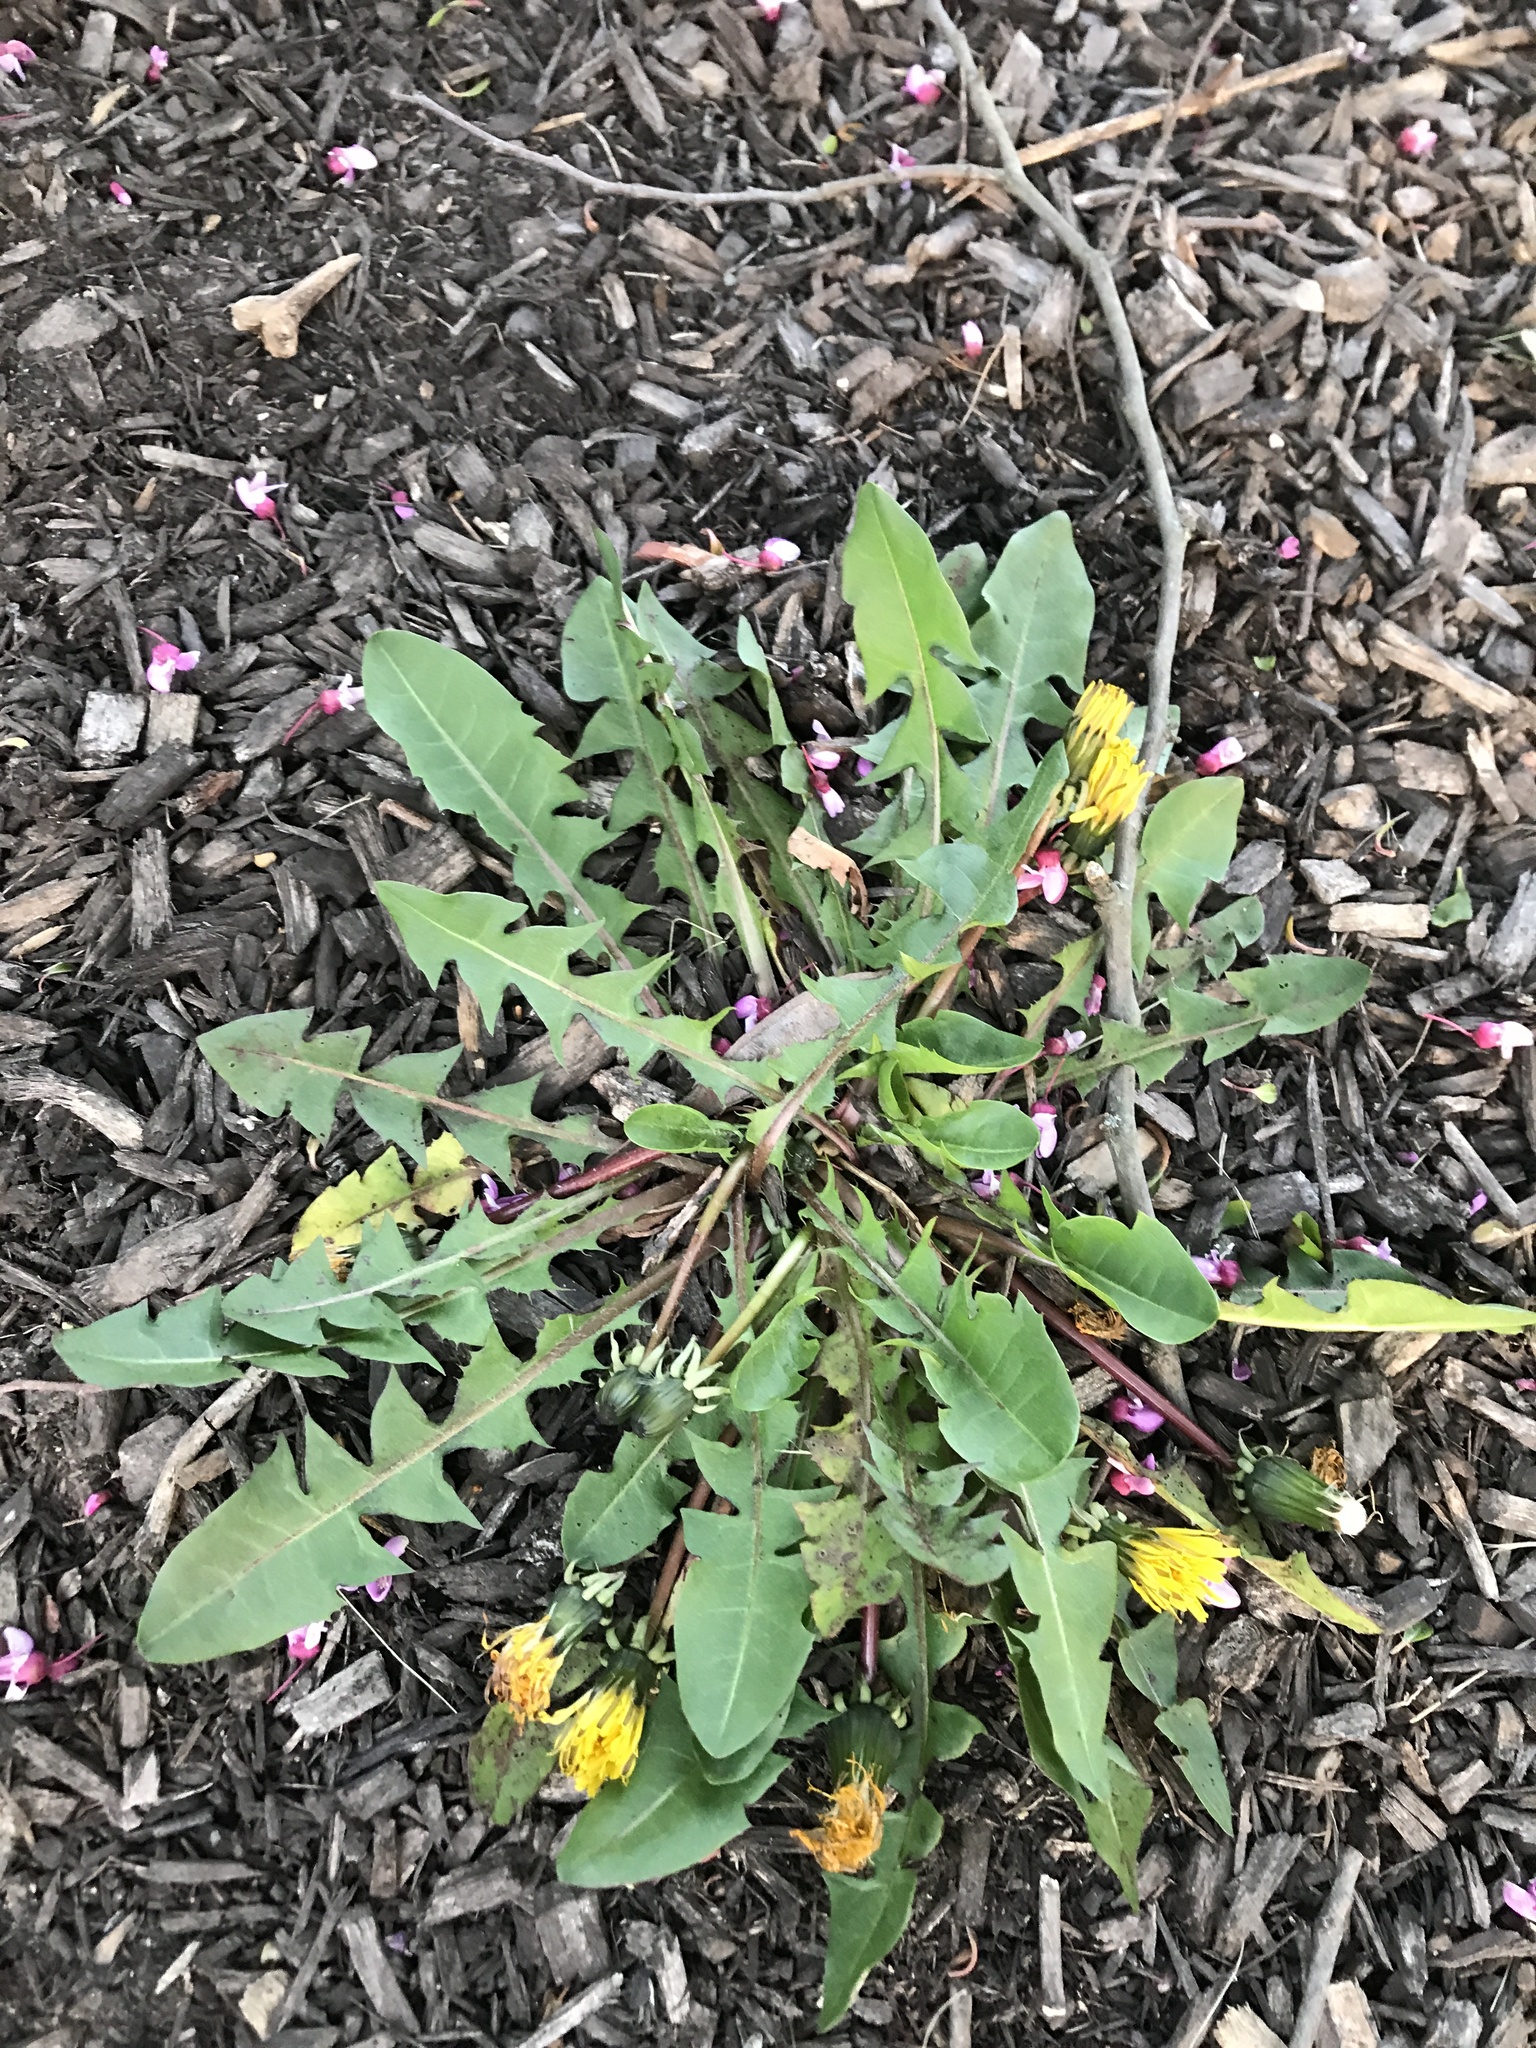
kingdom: Plantae
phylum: Tracheophyta
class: Magnoliopsida
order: Asterales
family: Asteraceae
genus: Taraxacum
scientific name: Taraxacum officinale
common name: Common dandelion
